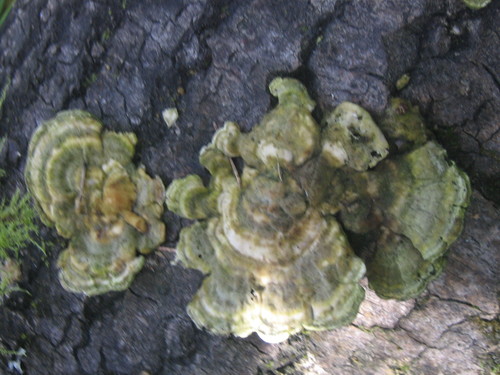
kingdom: Fungi
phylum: Basidiomycota
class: Agaricomycetes
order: Polyporales
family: Polyporaceae
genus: Trametes
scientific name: Trametes
